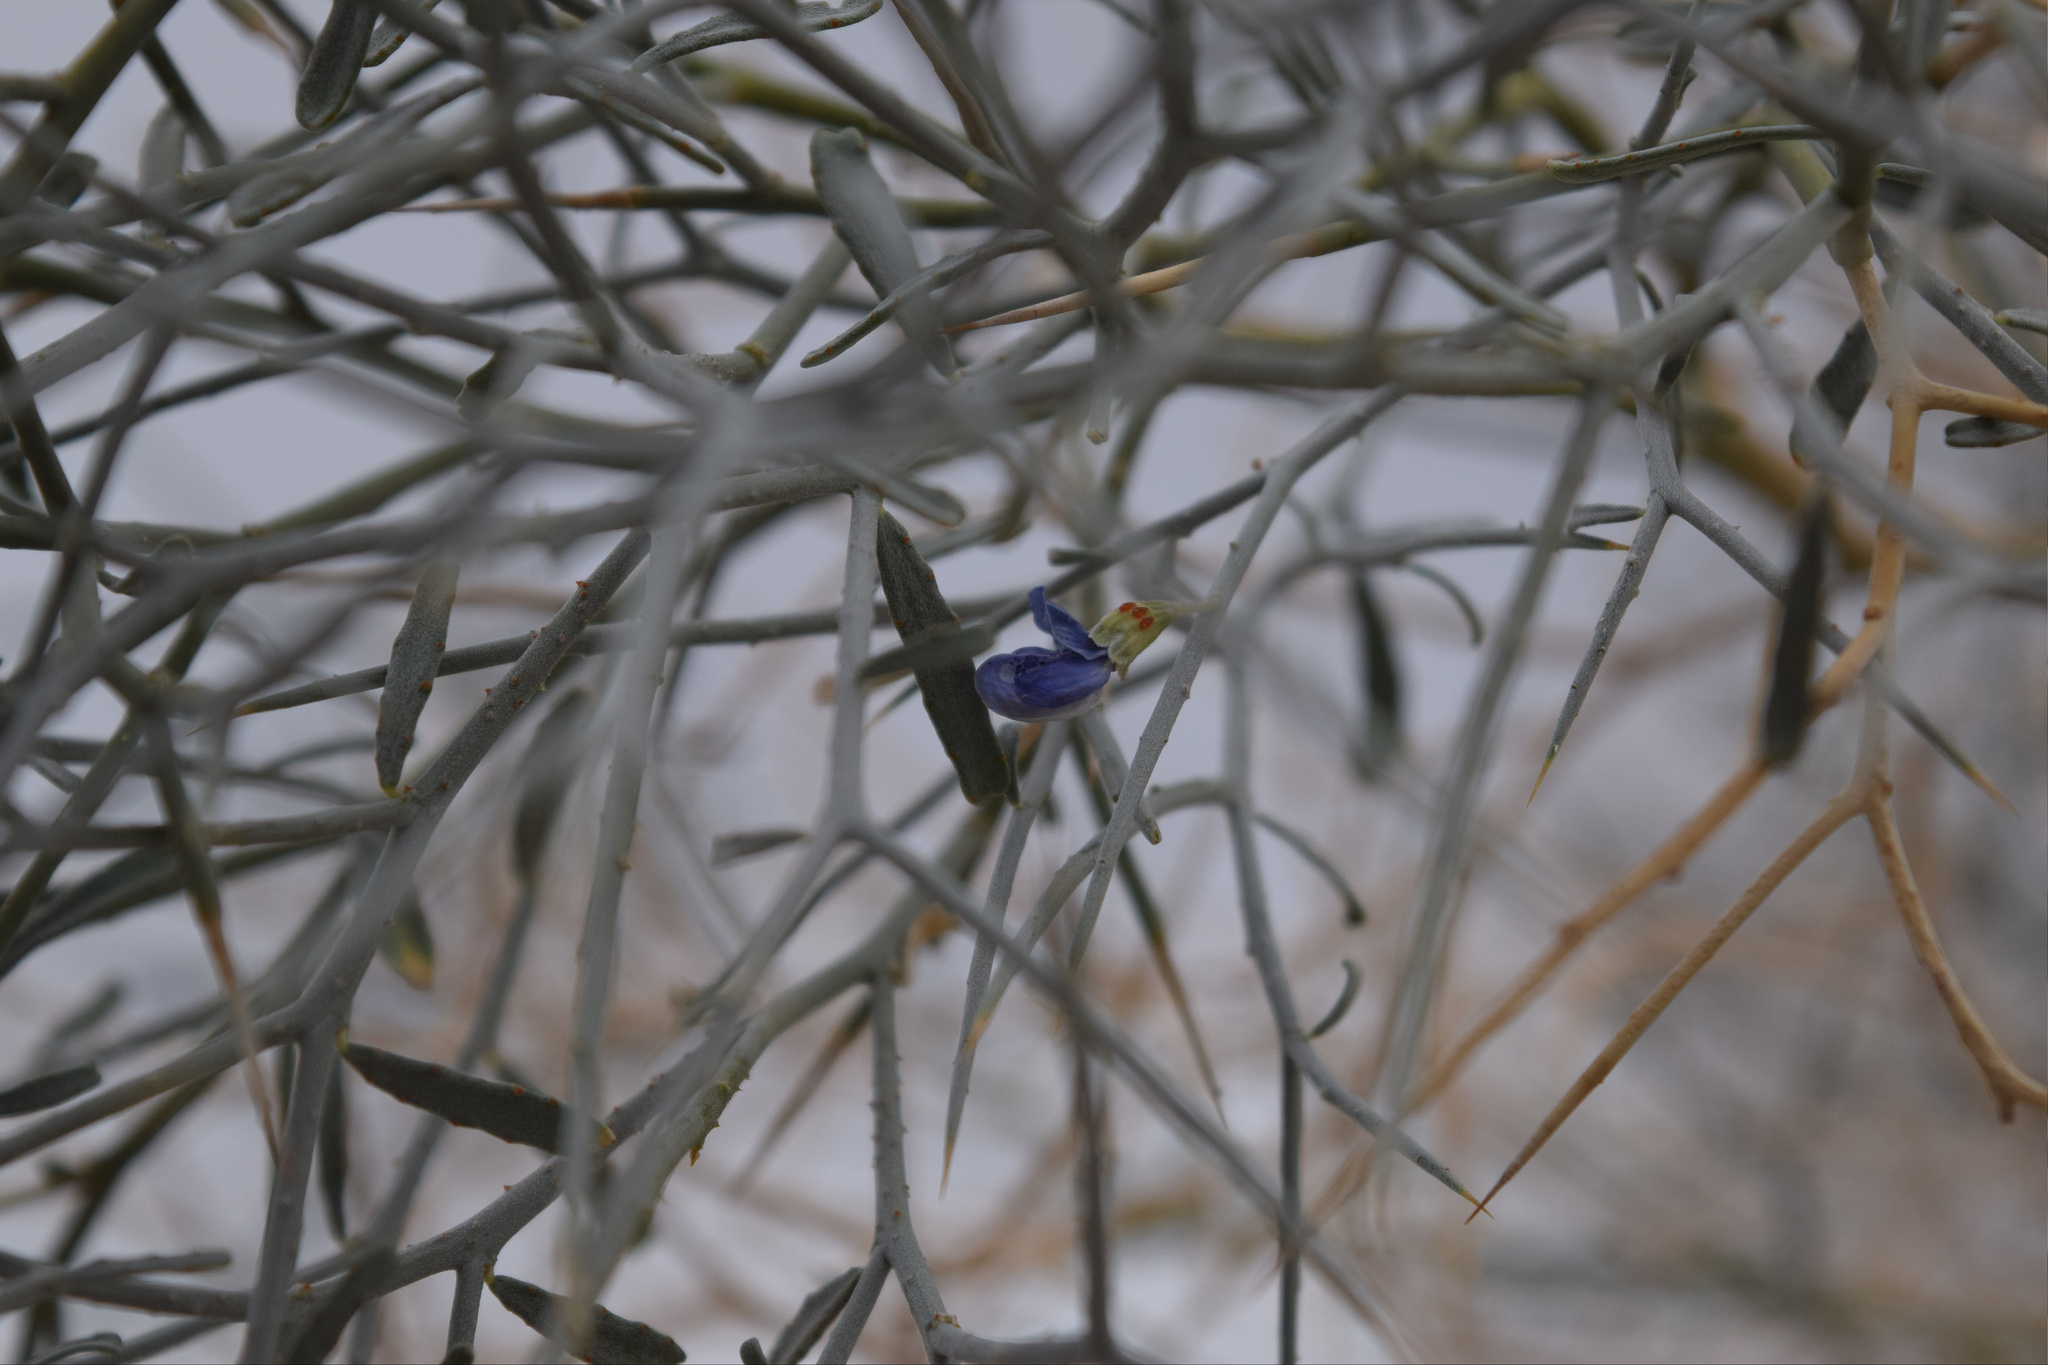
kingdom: Plantae
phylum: Tracheophyta
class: Magnoliopsida
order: Fabales
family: Fabaceae
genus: Psorothamnus
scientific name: Psorothamnus spinosus
